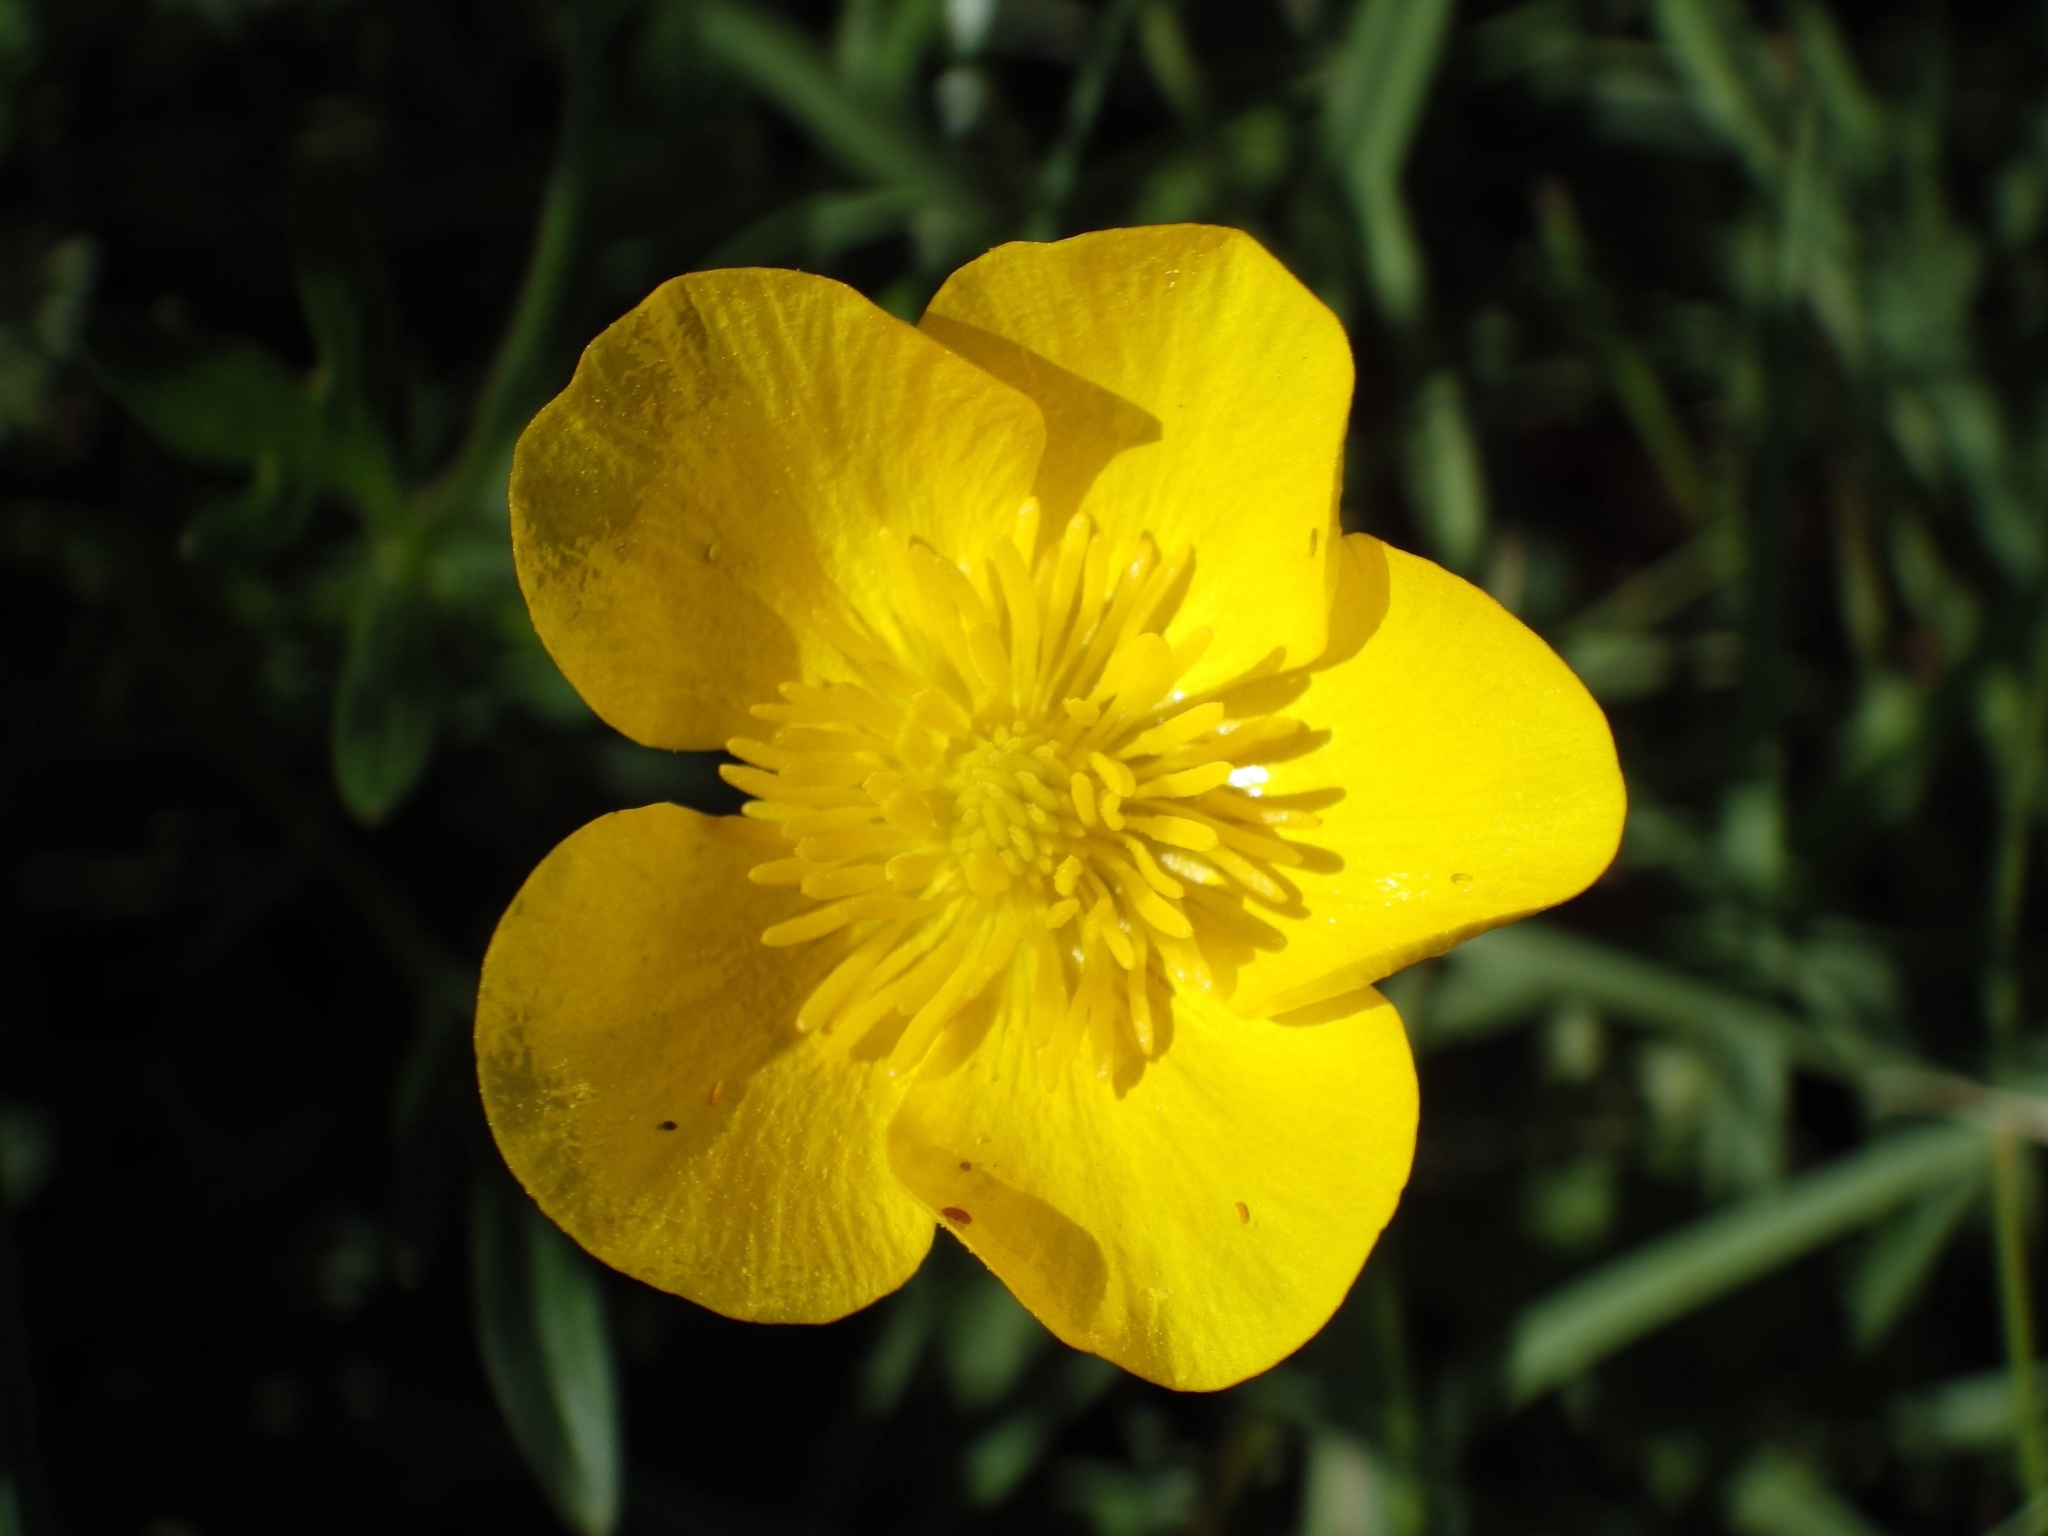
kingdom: Plantae
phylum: Tracheophyta
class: Magnoliopsida
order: Ranunculales
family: Ranunculaceae
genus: Ranunculus
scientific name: Ranunculus bulbosus
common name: Bulbous buttercup
